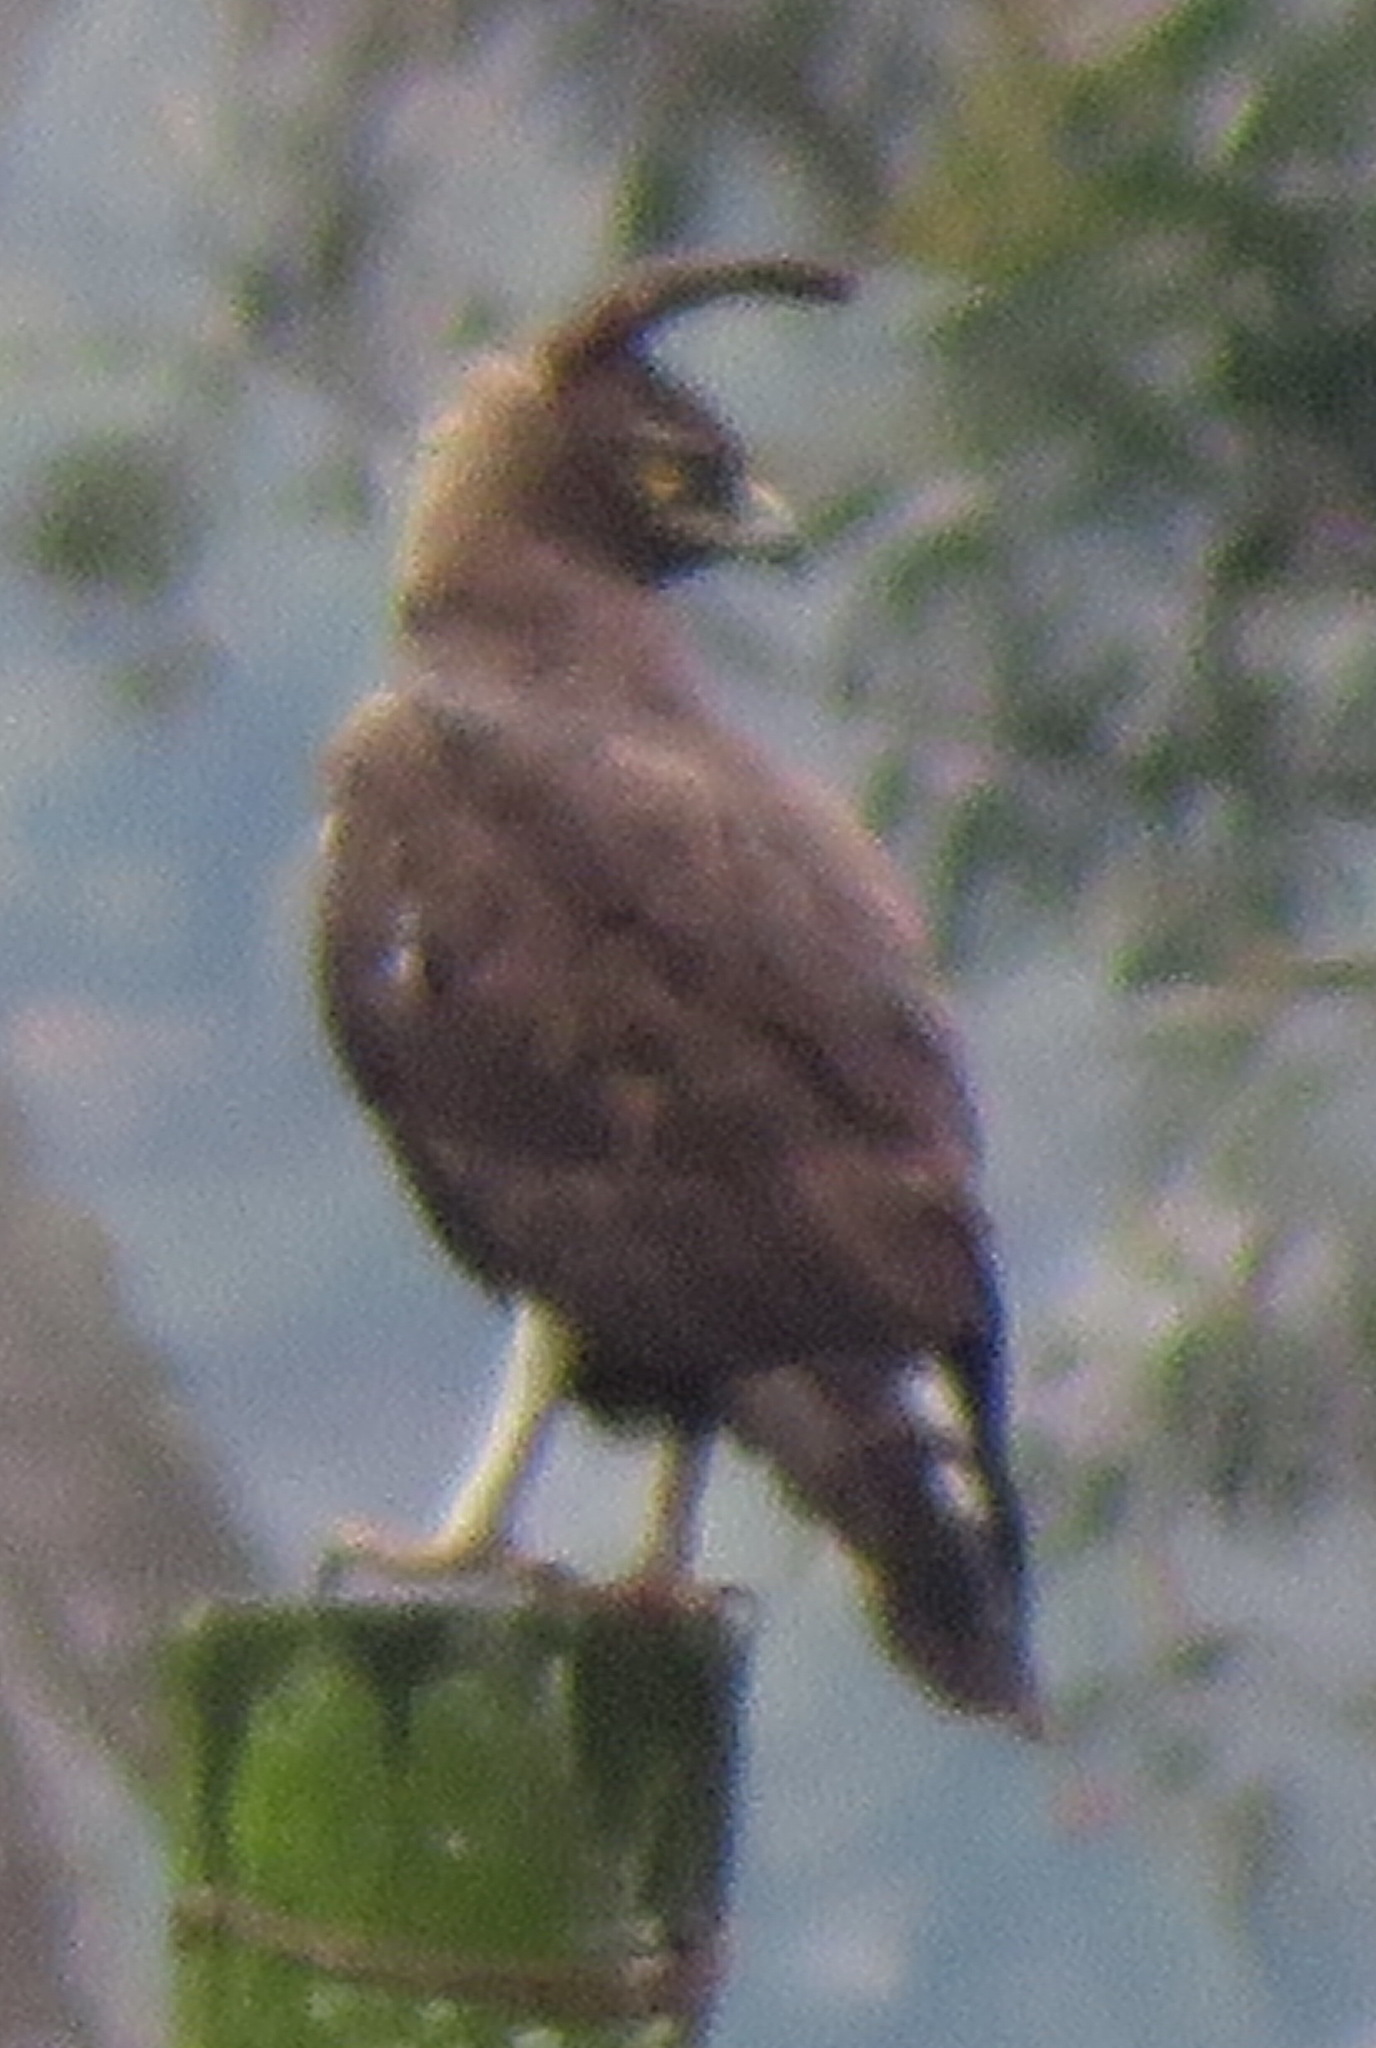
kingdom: Animalia
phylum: Chordata
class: Aves
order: Accipitriformes
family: Accipitridae
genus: Lophaetus
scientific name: Lophaetus occipitalis
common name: Long-crested eagle
